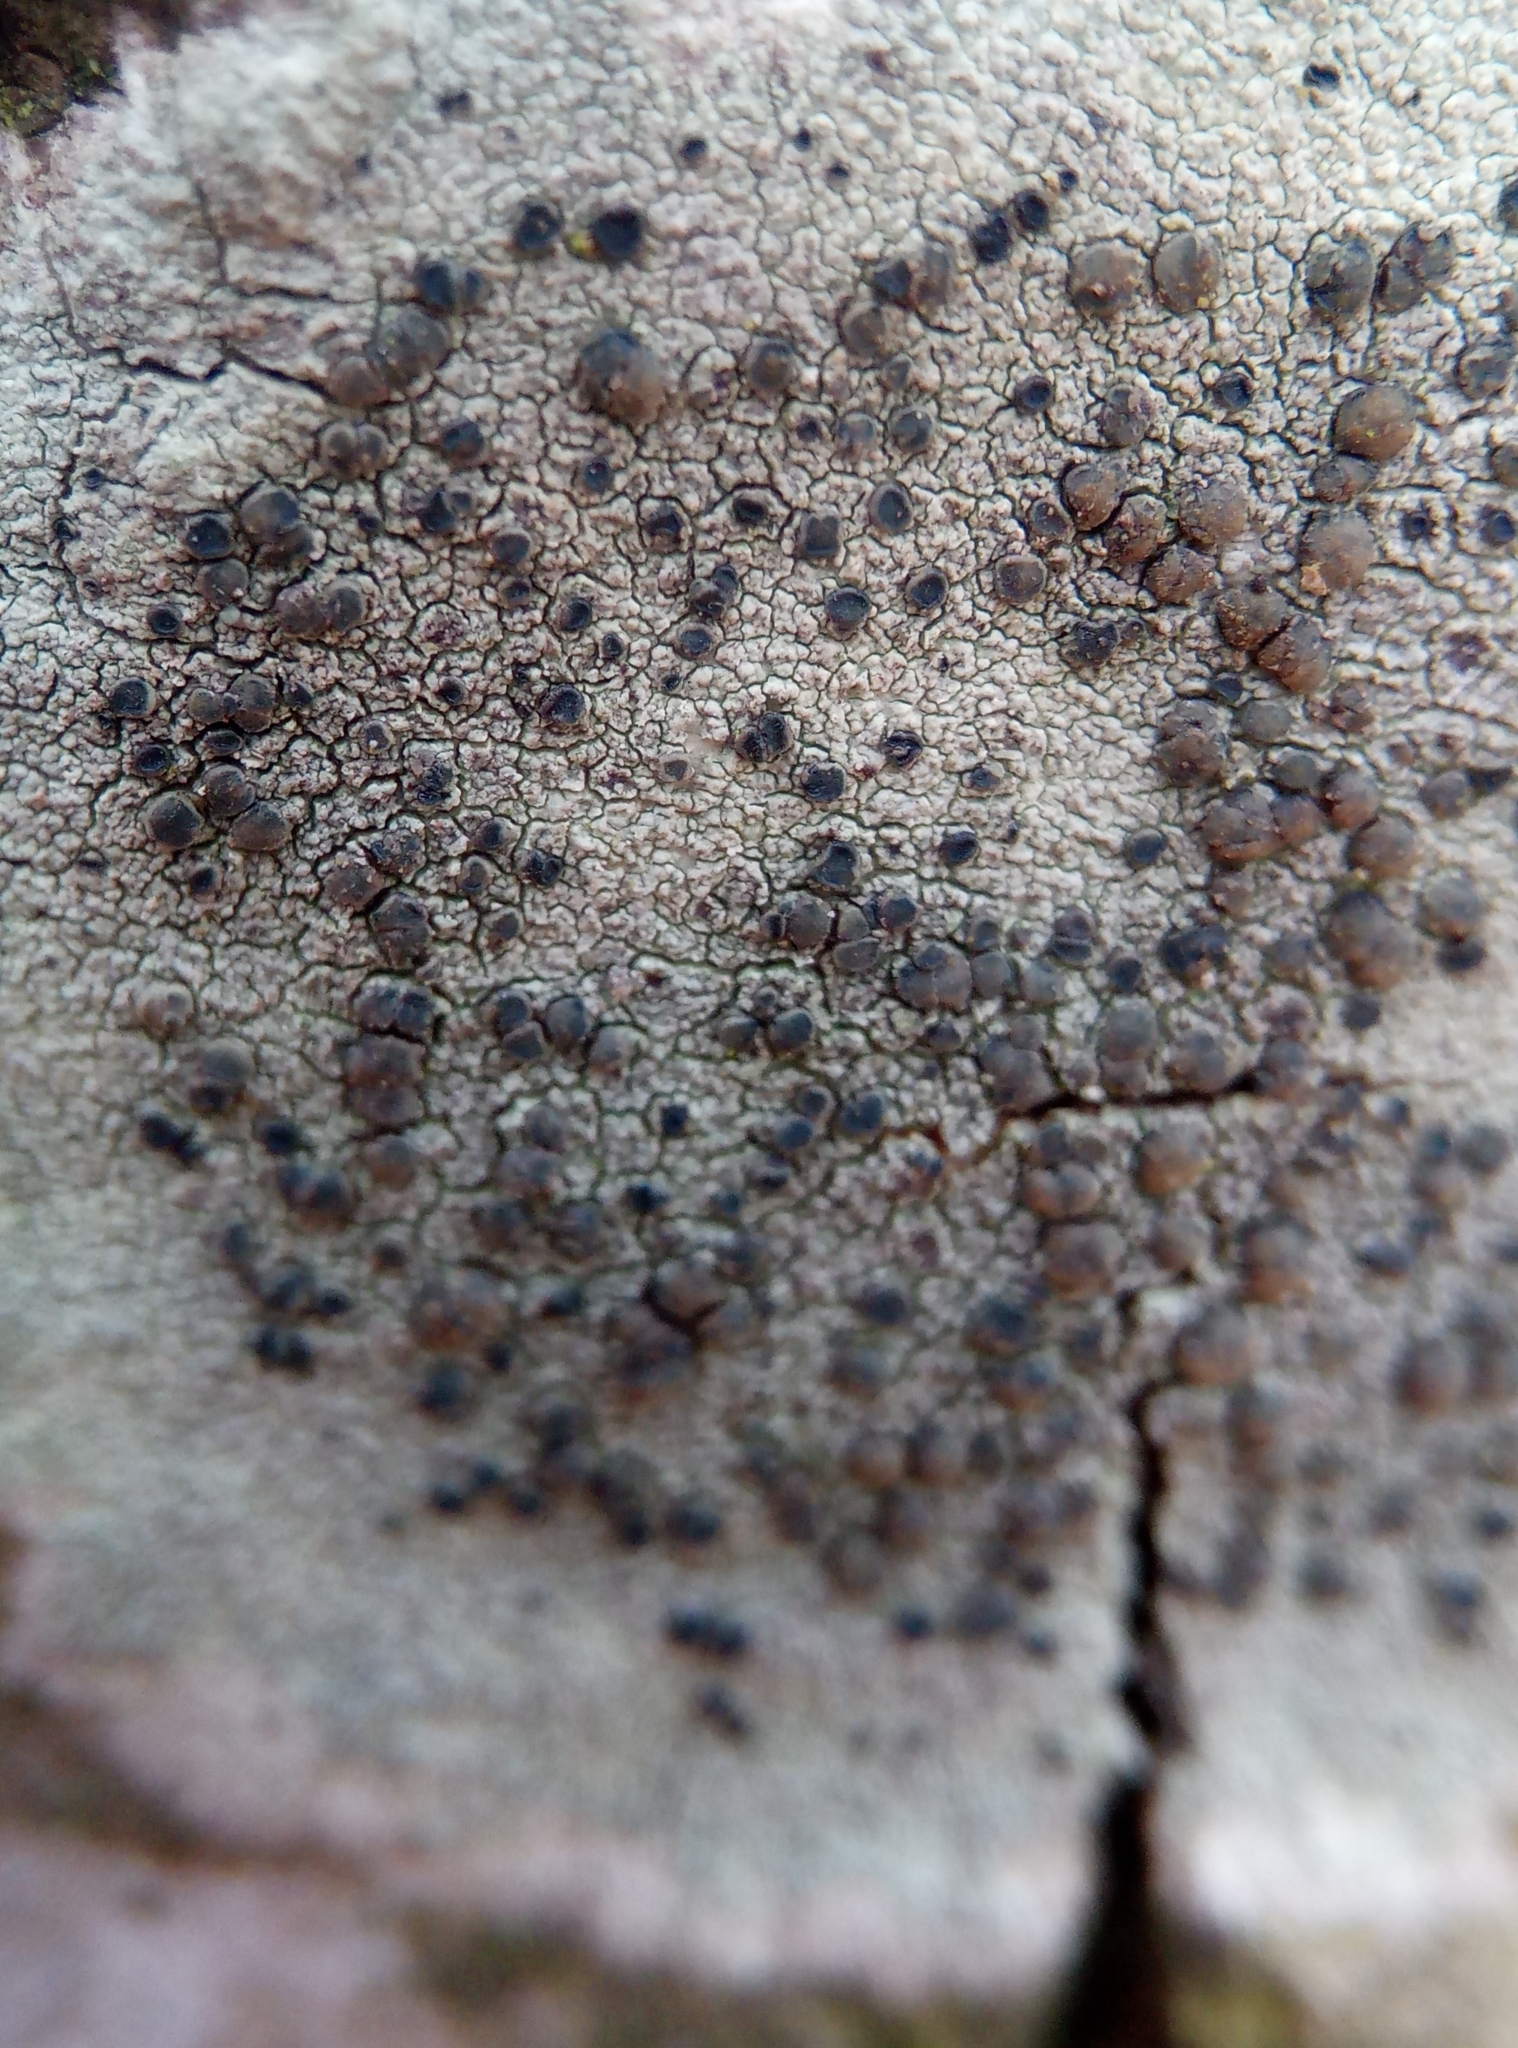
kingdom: Fungi
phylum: Ascomycota
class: Lecanoromycetes
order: Lecanorales
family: Lecanoraceae
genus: Lecidella
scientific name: Lecidella elaeochroma
